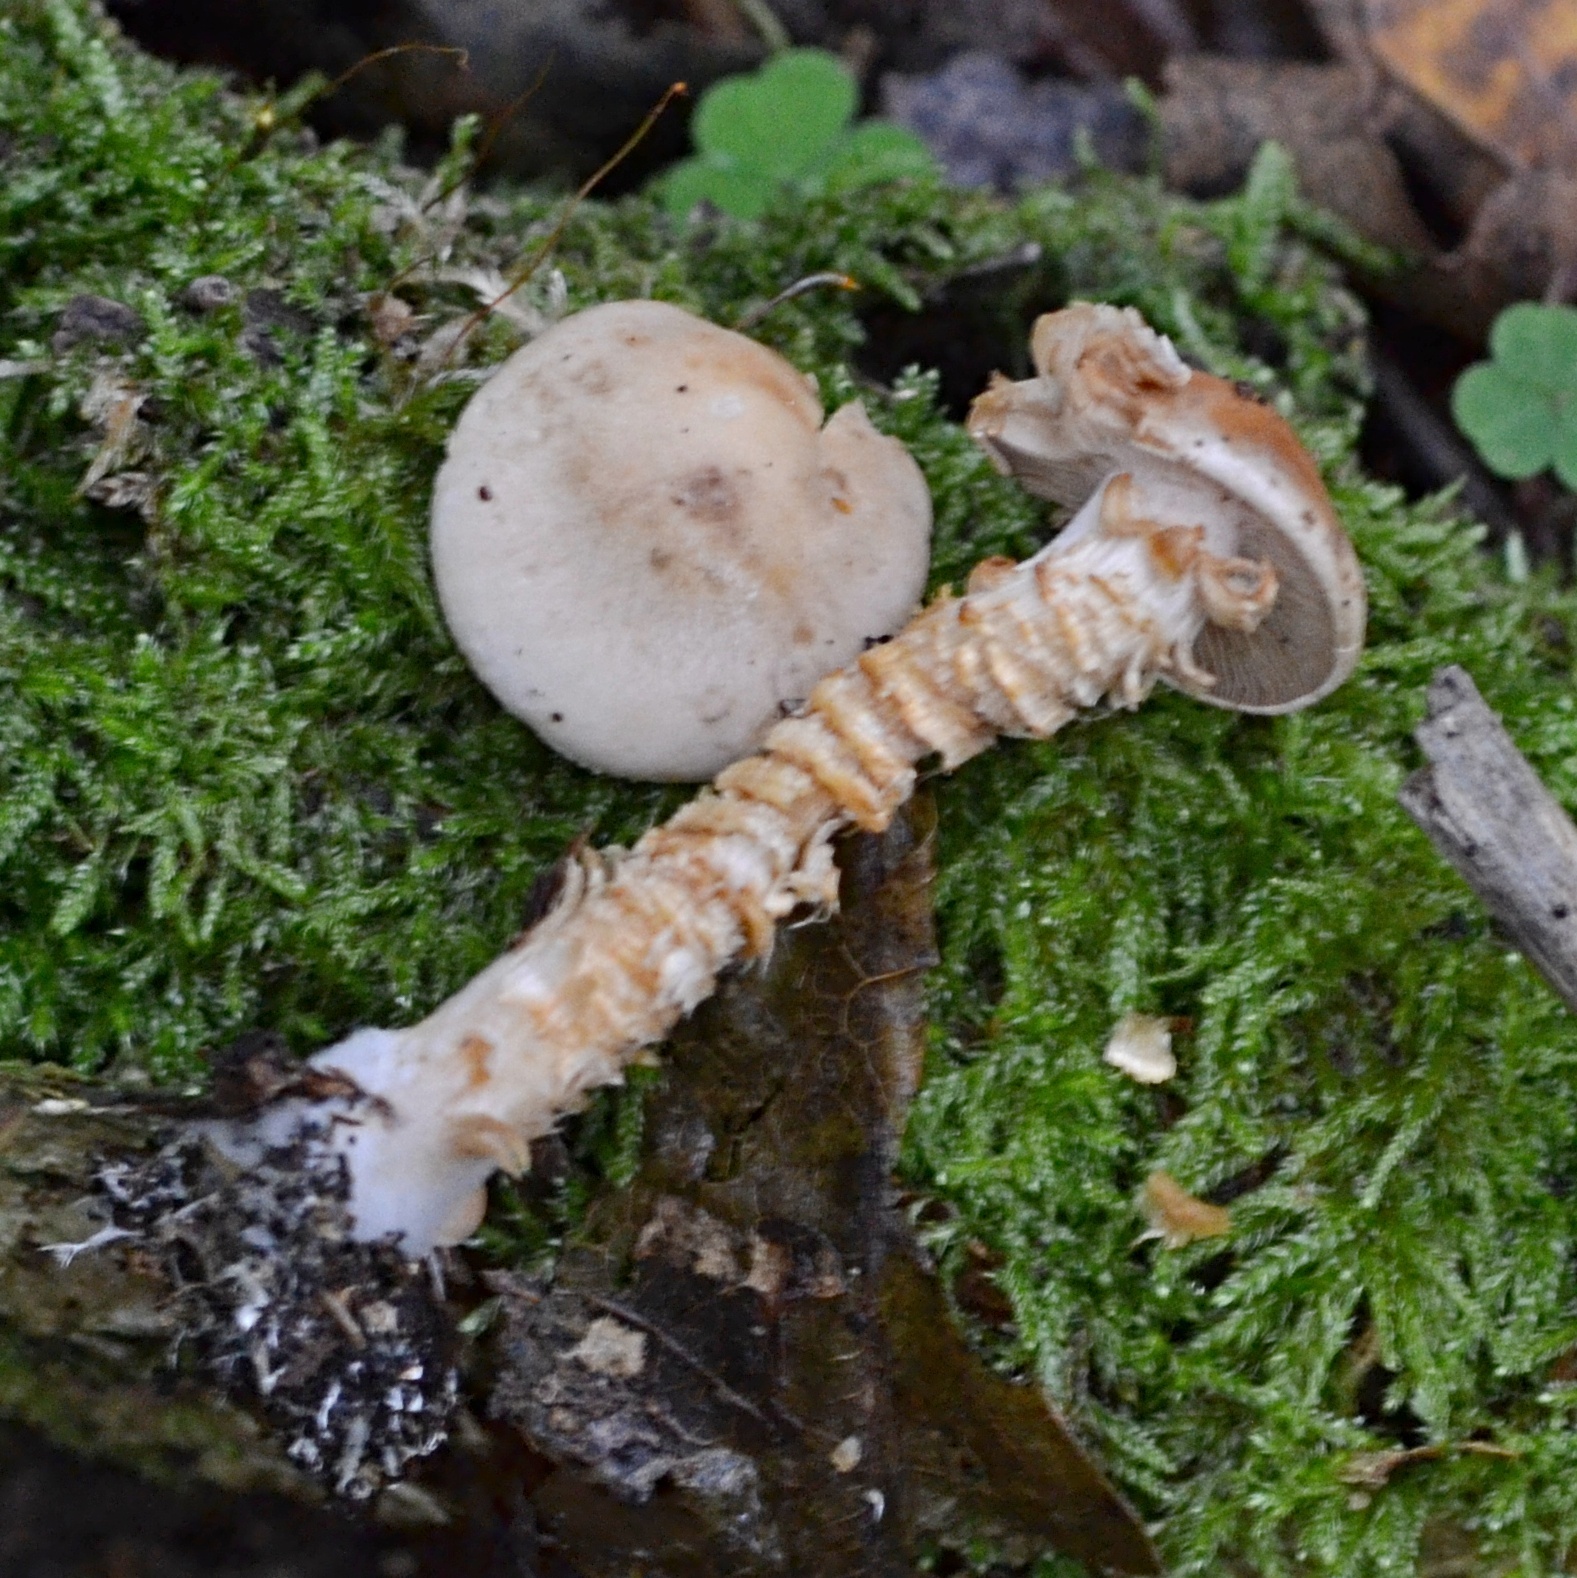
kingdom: Fungi
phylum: Basidiomycota
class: Agaricomycetes
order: Agaricales
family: Cortinariaceae
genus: Cortinarius
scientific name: Cortinarius trivialis
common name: Girdled webcap
